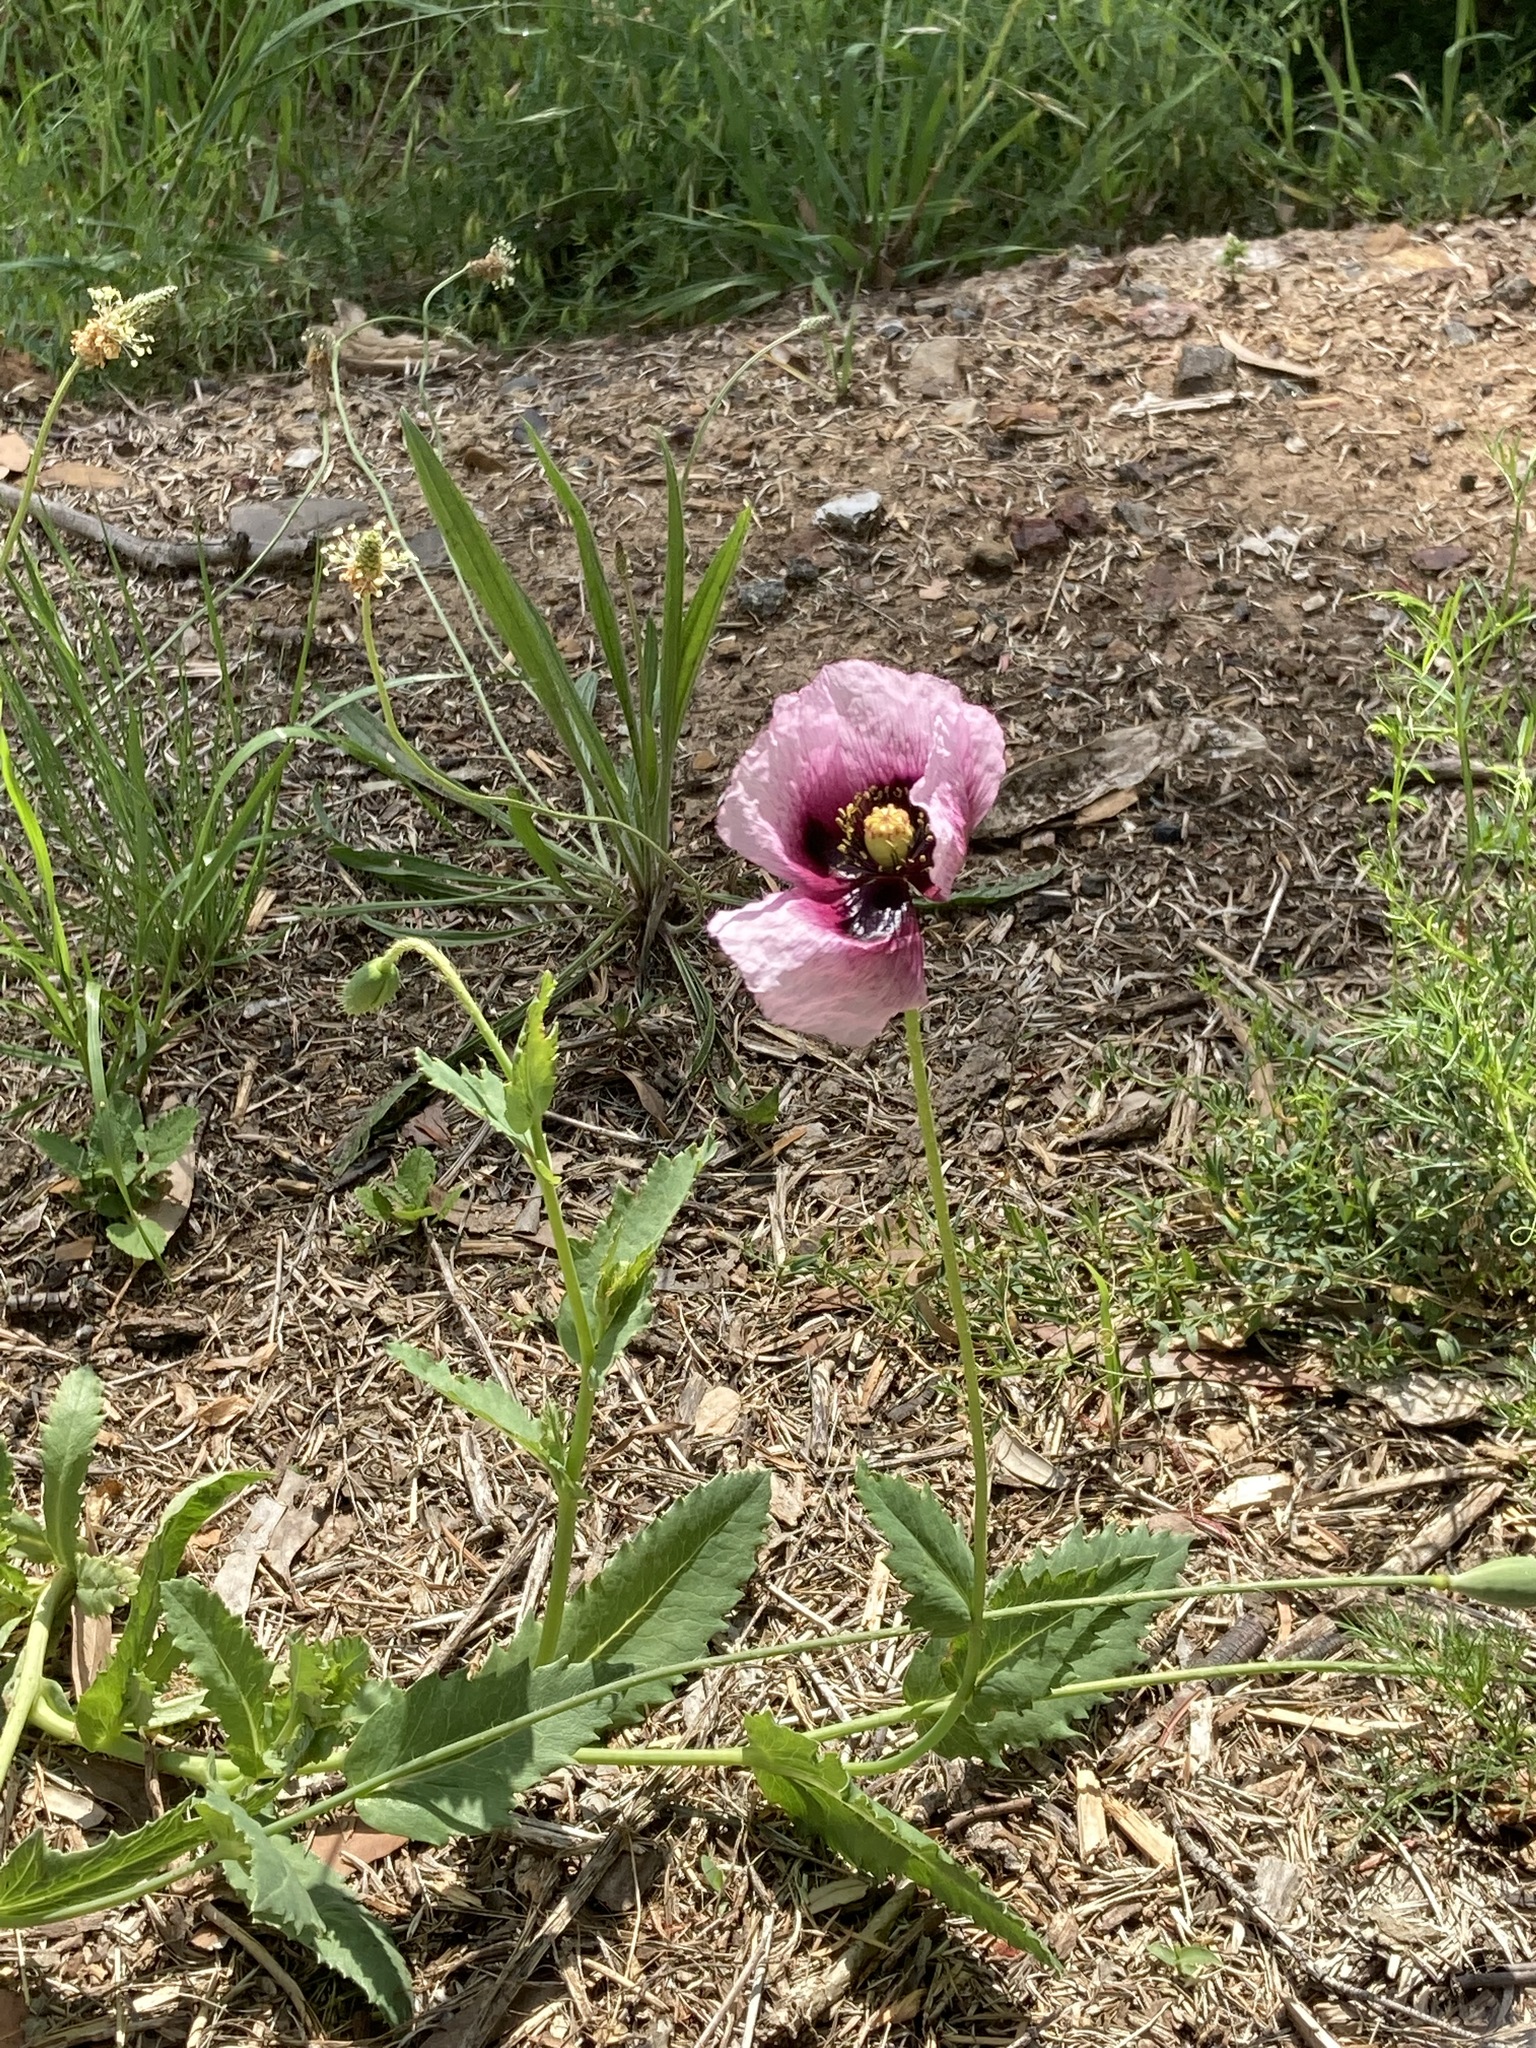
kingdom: Plantae
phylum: Tracheophyta
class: Magnoliopsida
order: Ranunculales
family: Papaveraceae
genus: Papaver
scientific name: Papaver somniferum
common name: Opium poppy
